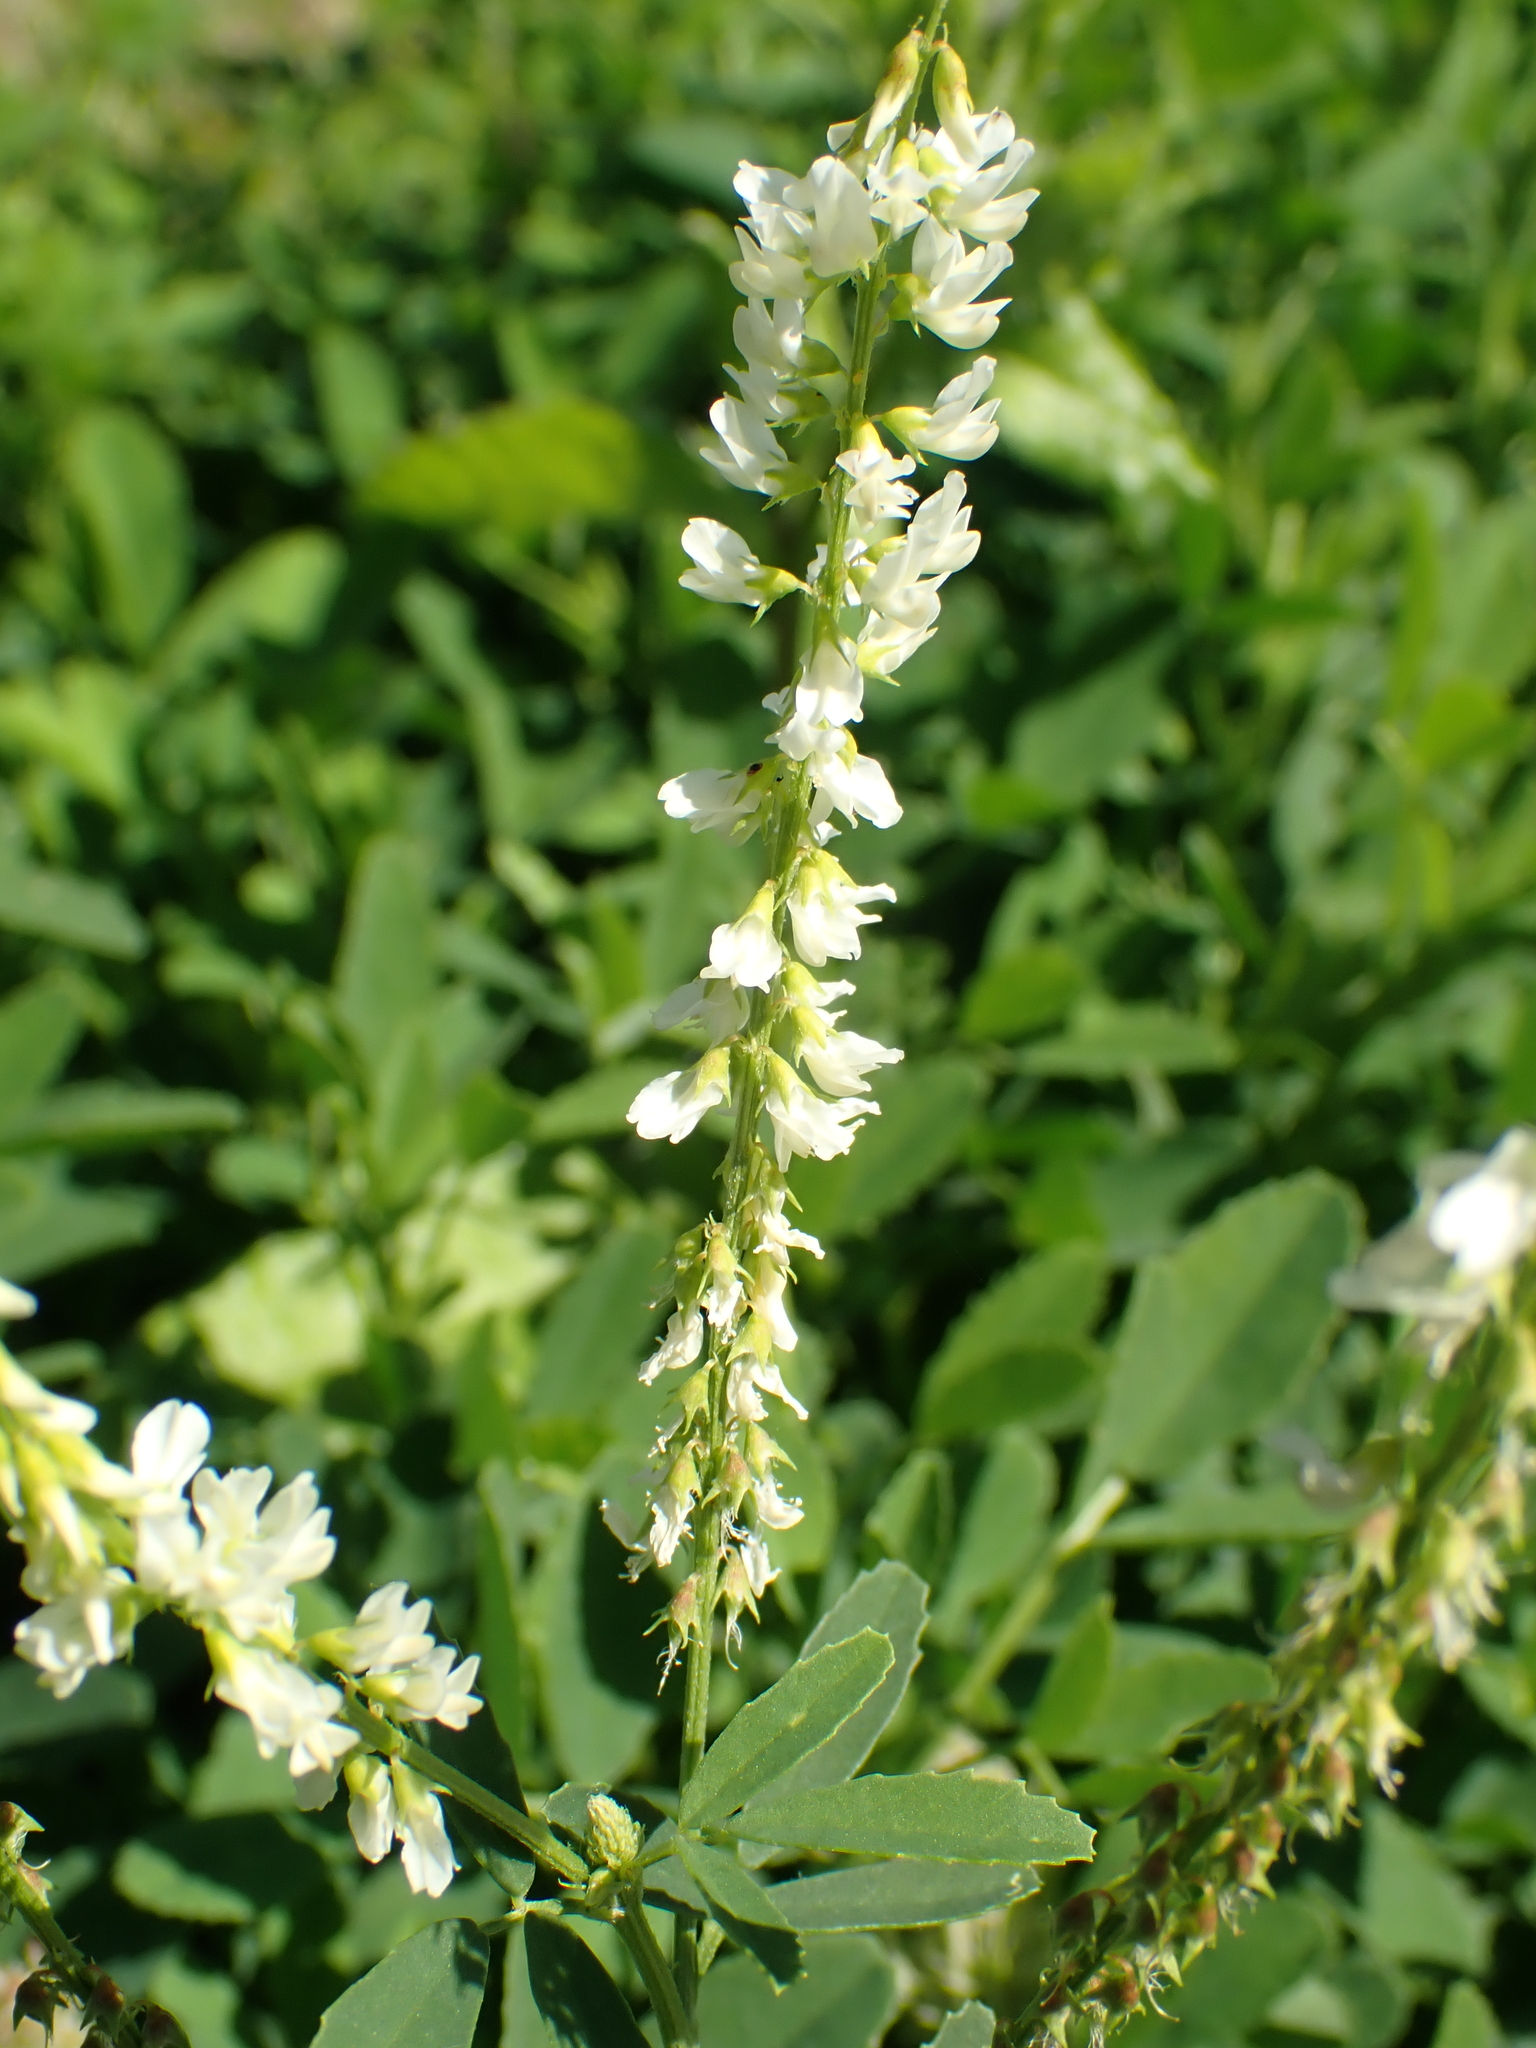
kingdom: Plantae
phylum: Tracheophyta
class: Magnoliopsida
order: Fabales
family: Fabaceae
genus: Melilotus
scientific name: Melilotus albus
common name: White melilot
